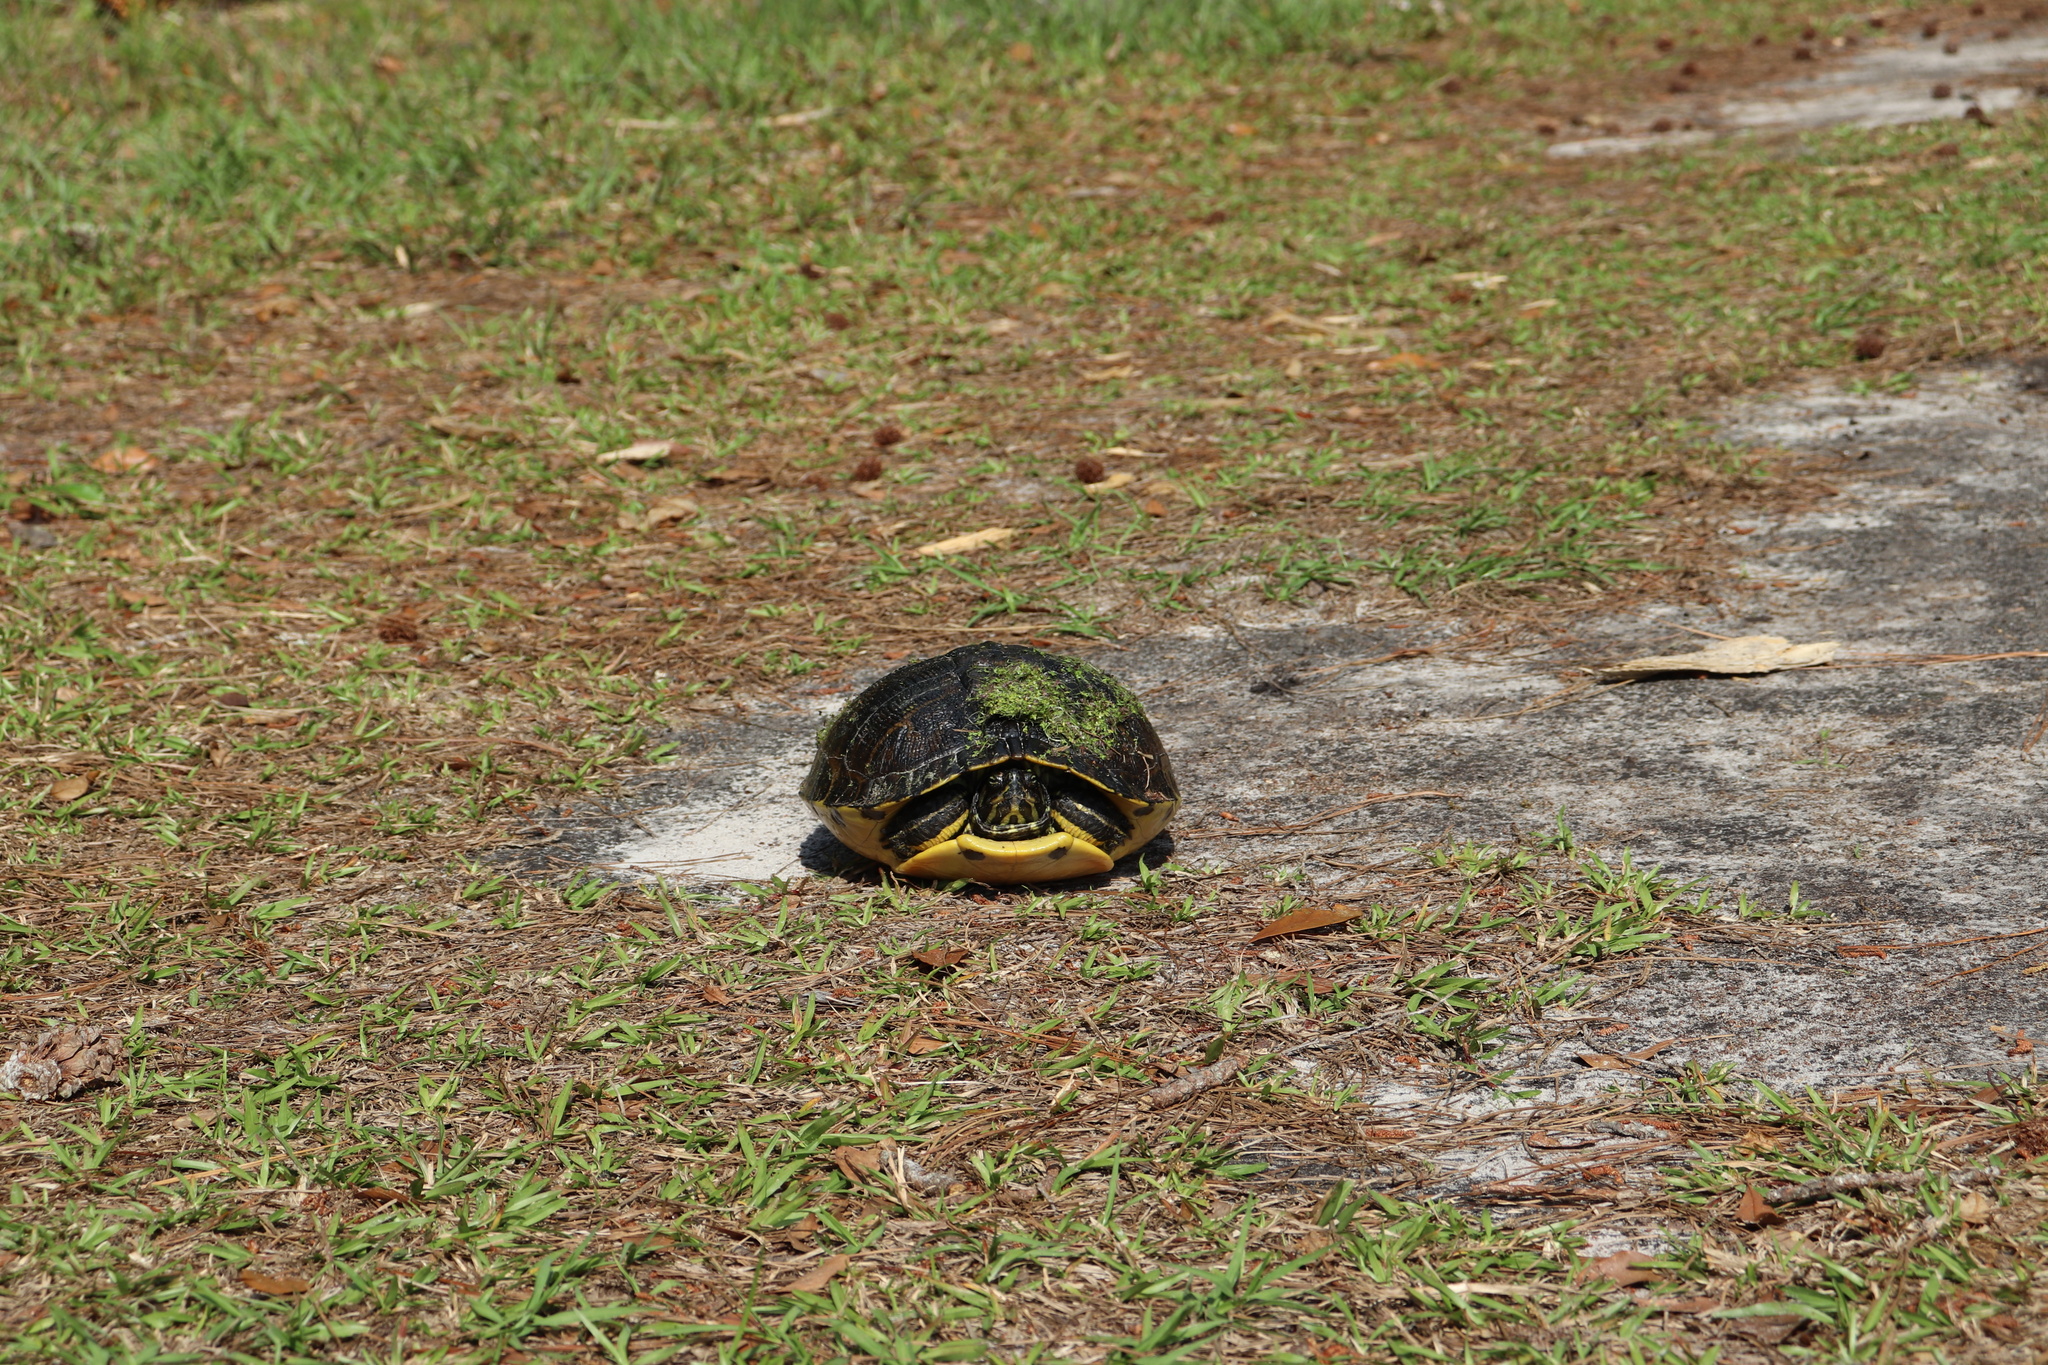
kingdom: Animalia
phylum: Chordata
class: Testudines
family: Emydidae
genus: Trachemys
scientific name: Trachemys scripta
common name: Slider
